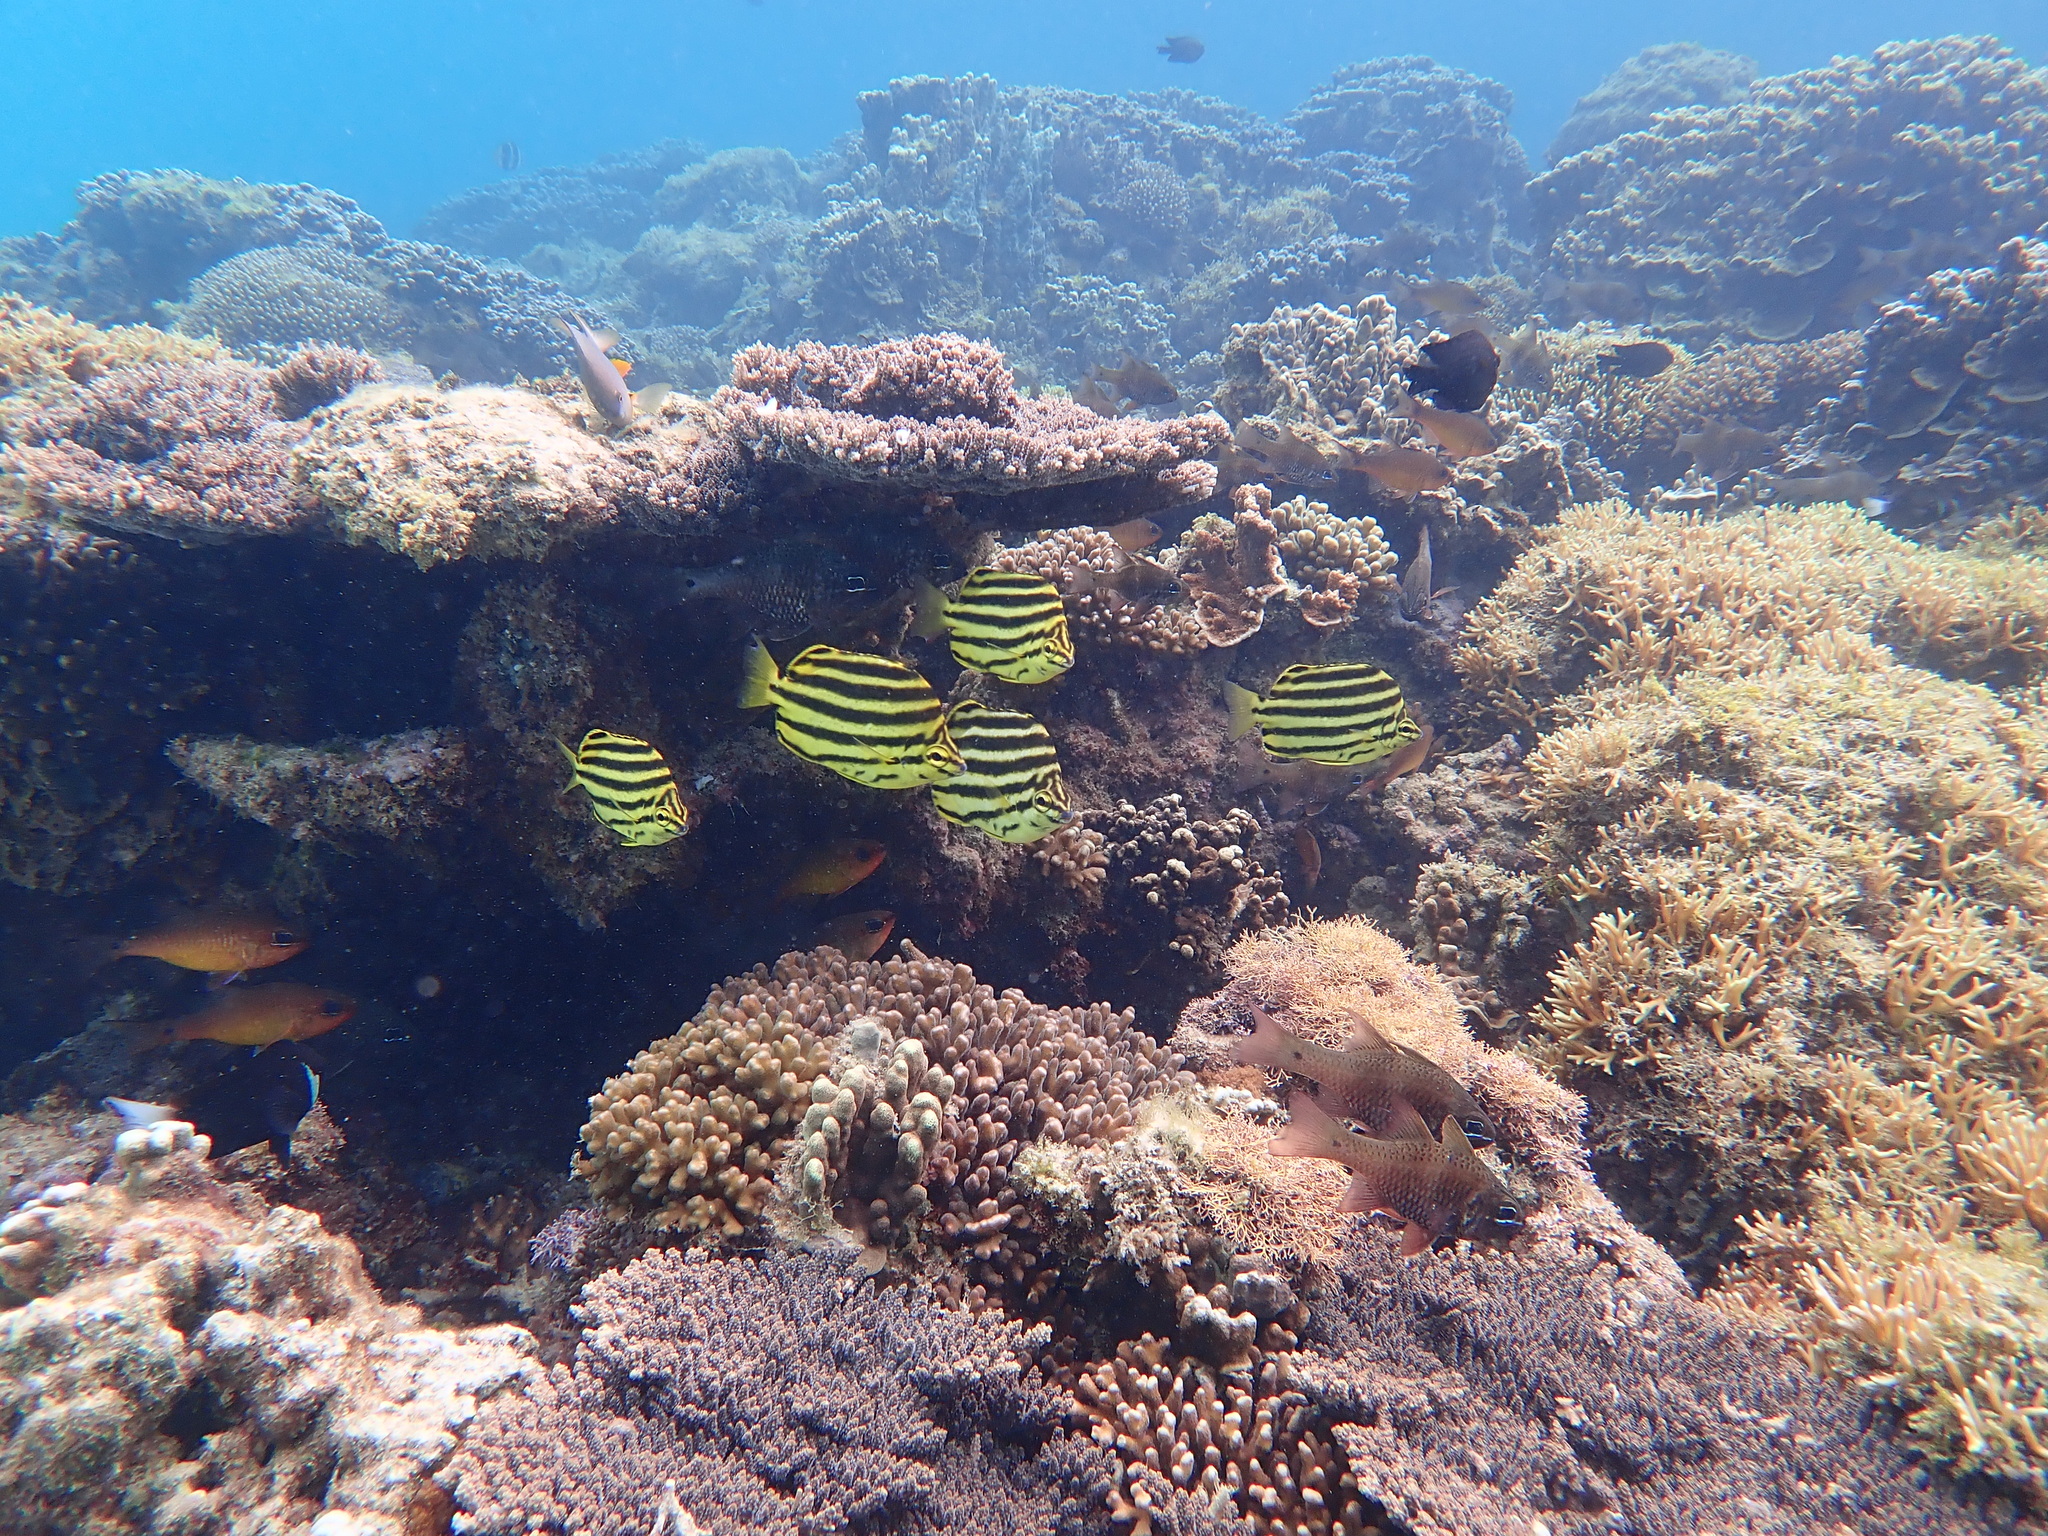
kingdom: Animalia
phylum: Chordata
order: Perciformes
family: Kyphosidae
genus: Microcanthus
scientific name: Microcanthus joyceae
